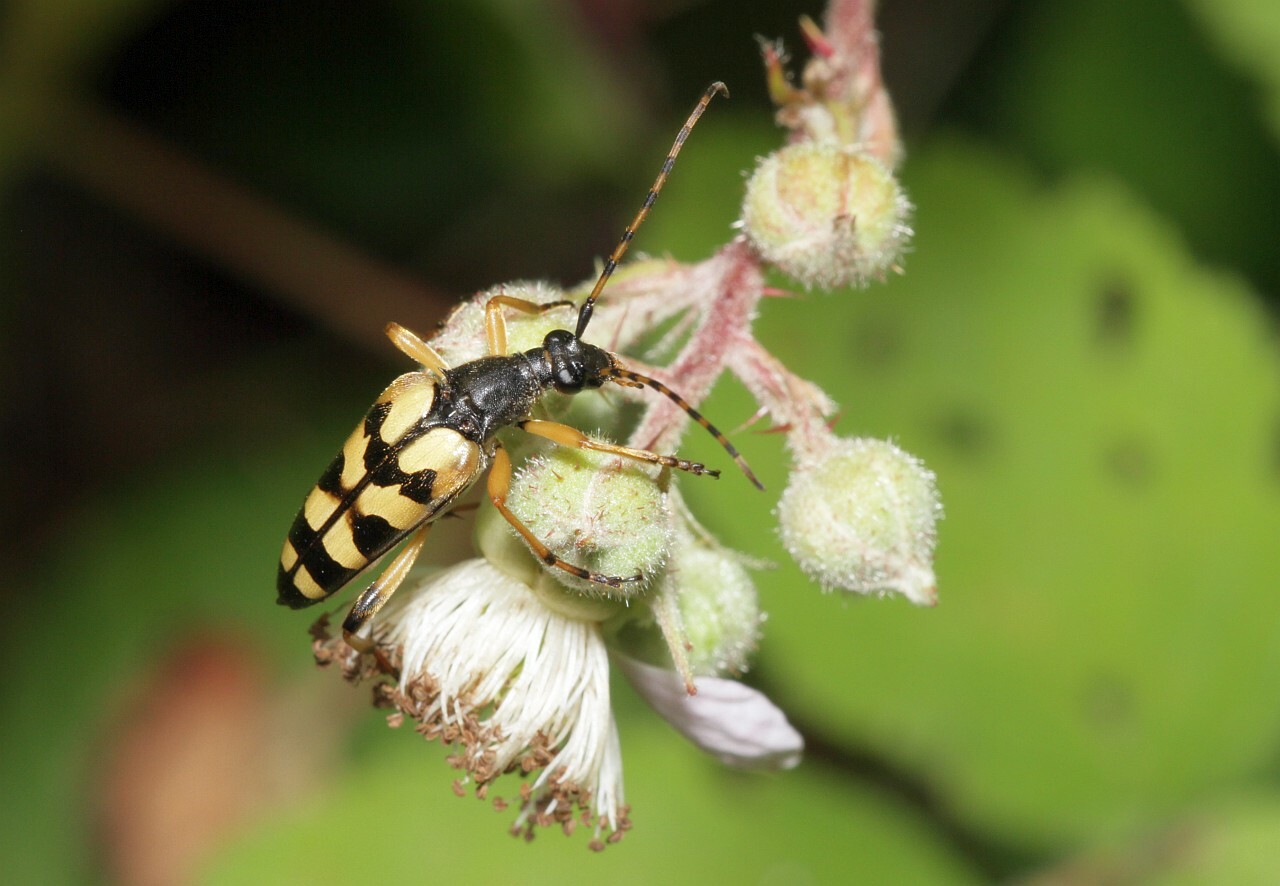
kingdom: Animalia
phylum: Arthropoda
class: Insecta
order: Coleoptera
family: Cerambycidae
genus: Rutpela
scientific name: Rutpela maculata
